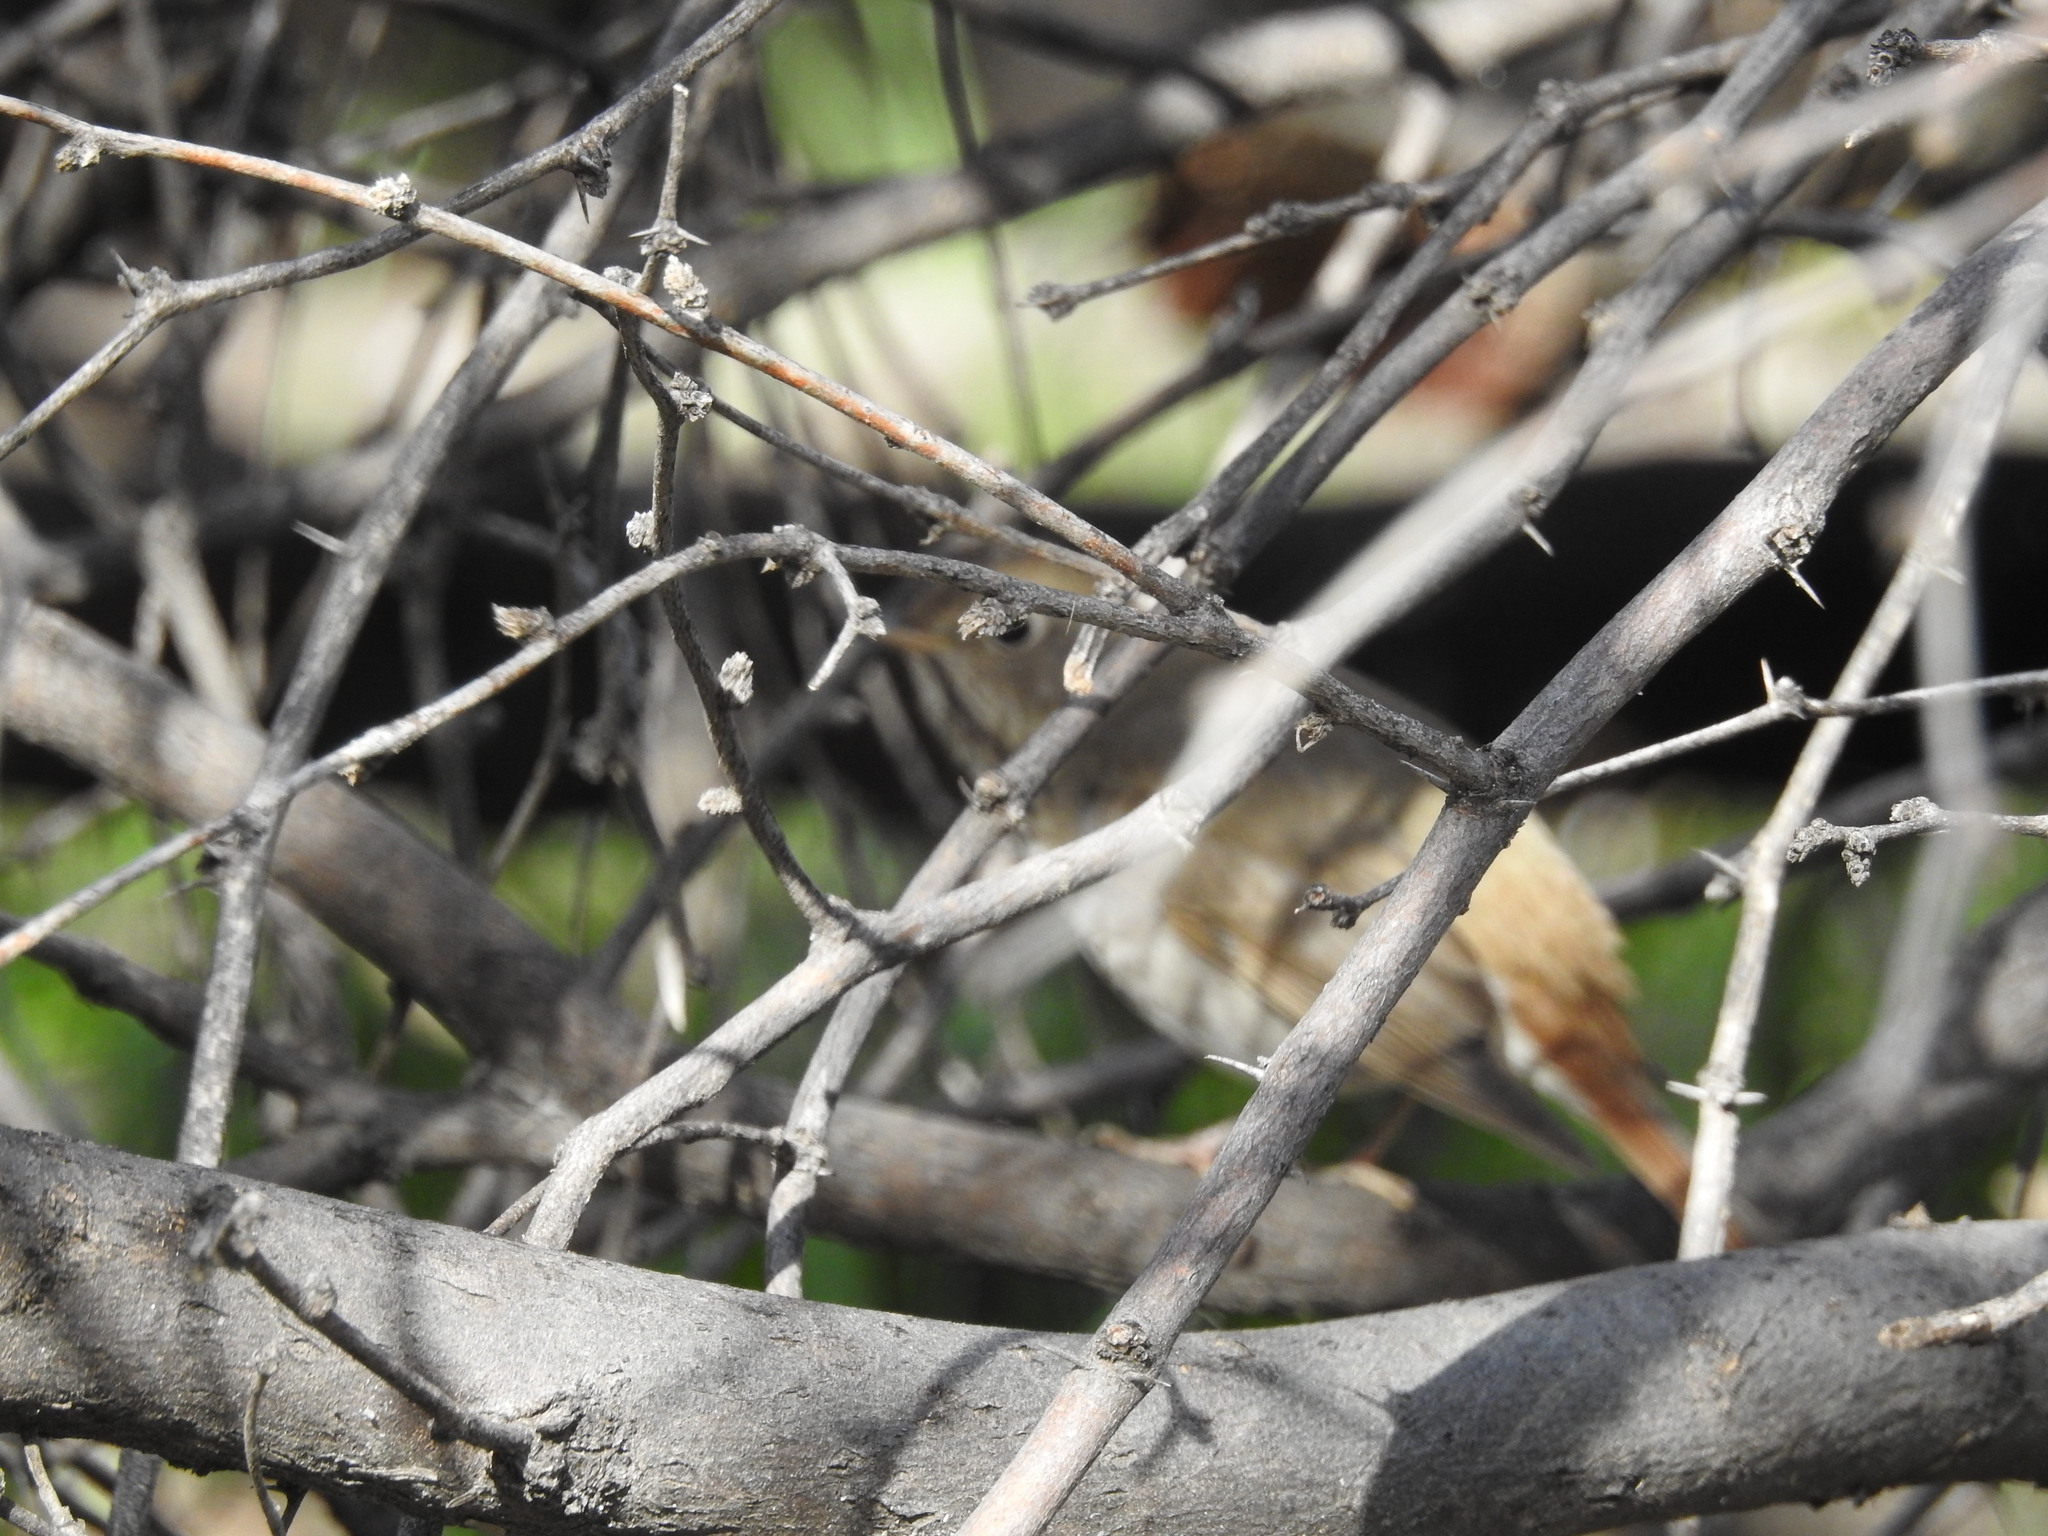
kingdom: Animalia
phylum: Chordata
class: Aves
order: Passeriformes
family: Turdidae
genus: Catharus
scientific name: Catharus guttatus
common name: Hermit thrush
